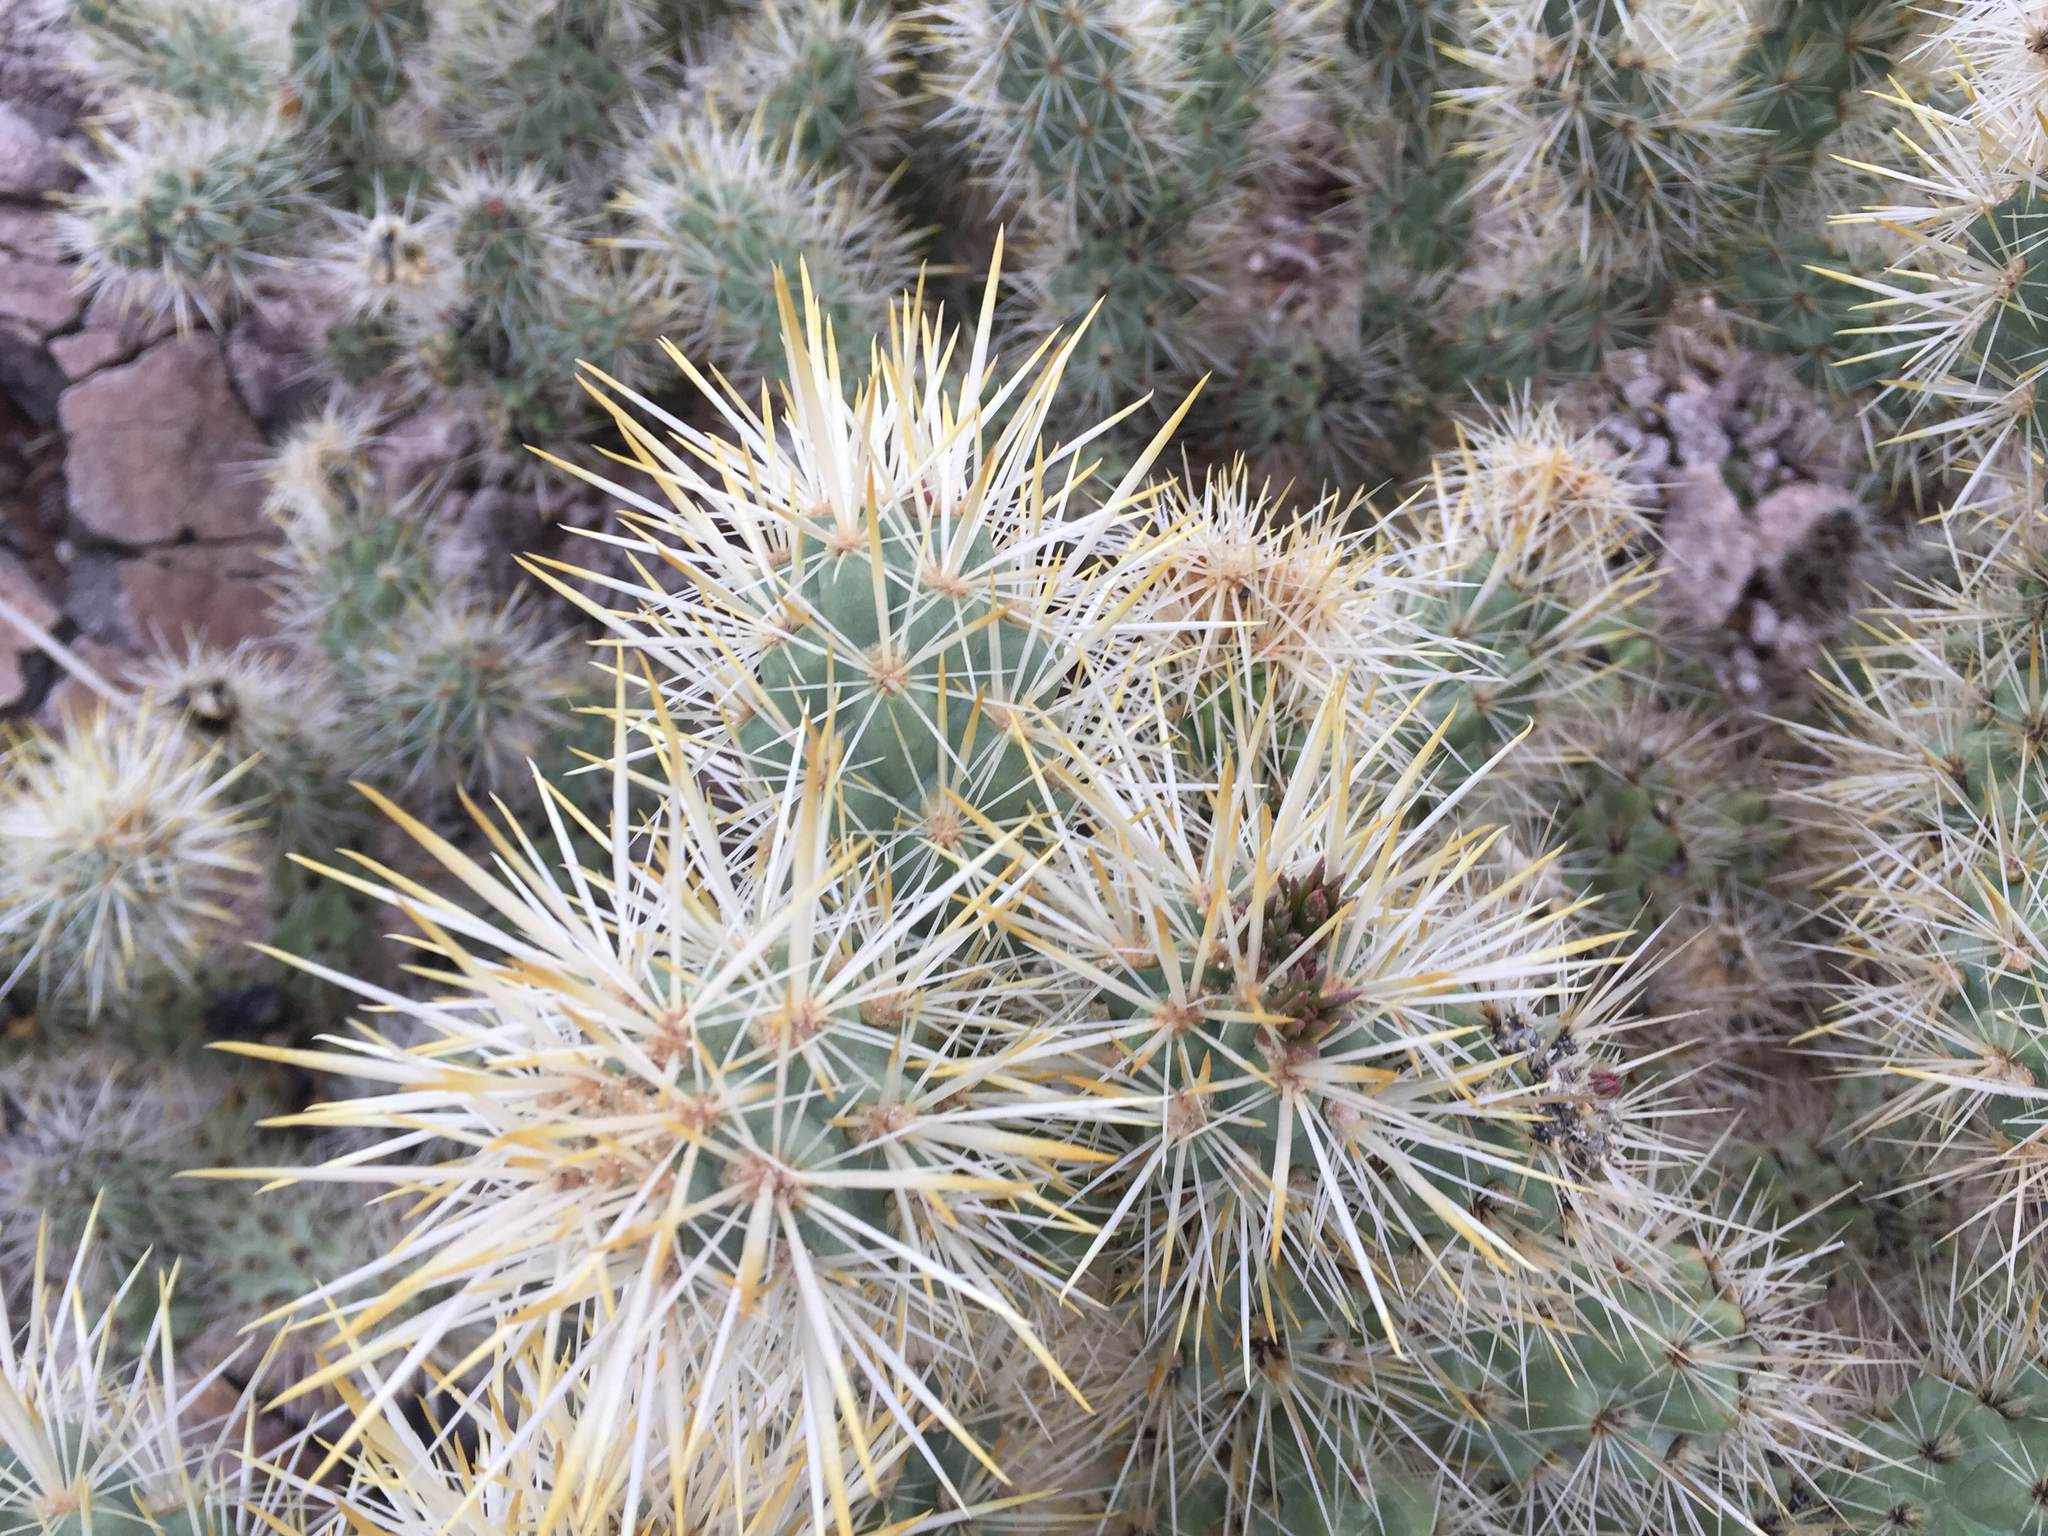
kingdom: Plantae
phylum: Tracheophyta
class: Magnoliopsida
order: Caryophyllales
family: Cactaceae
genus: Cylindropuntia
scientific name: Cylindropuntia echinocarpa
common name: Ground cholla
